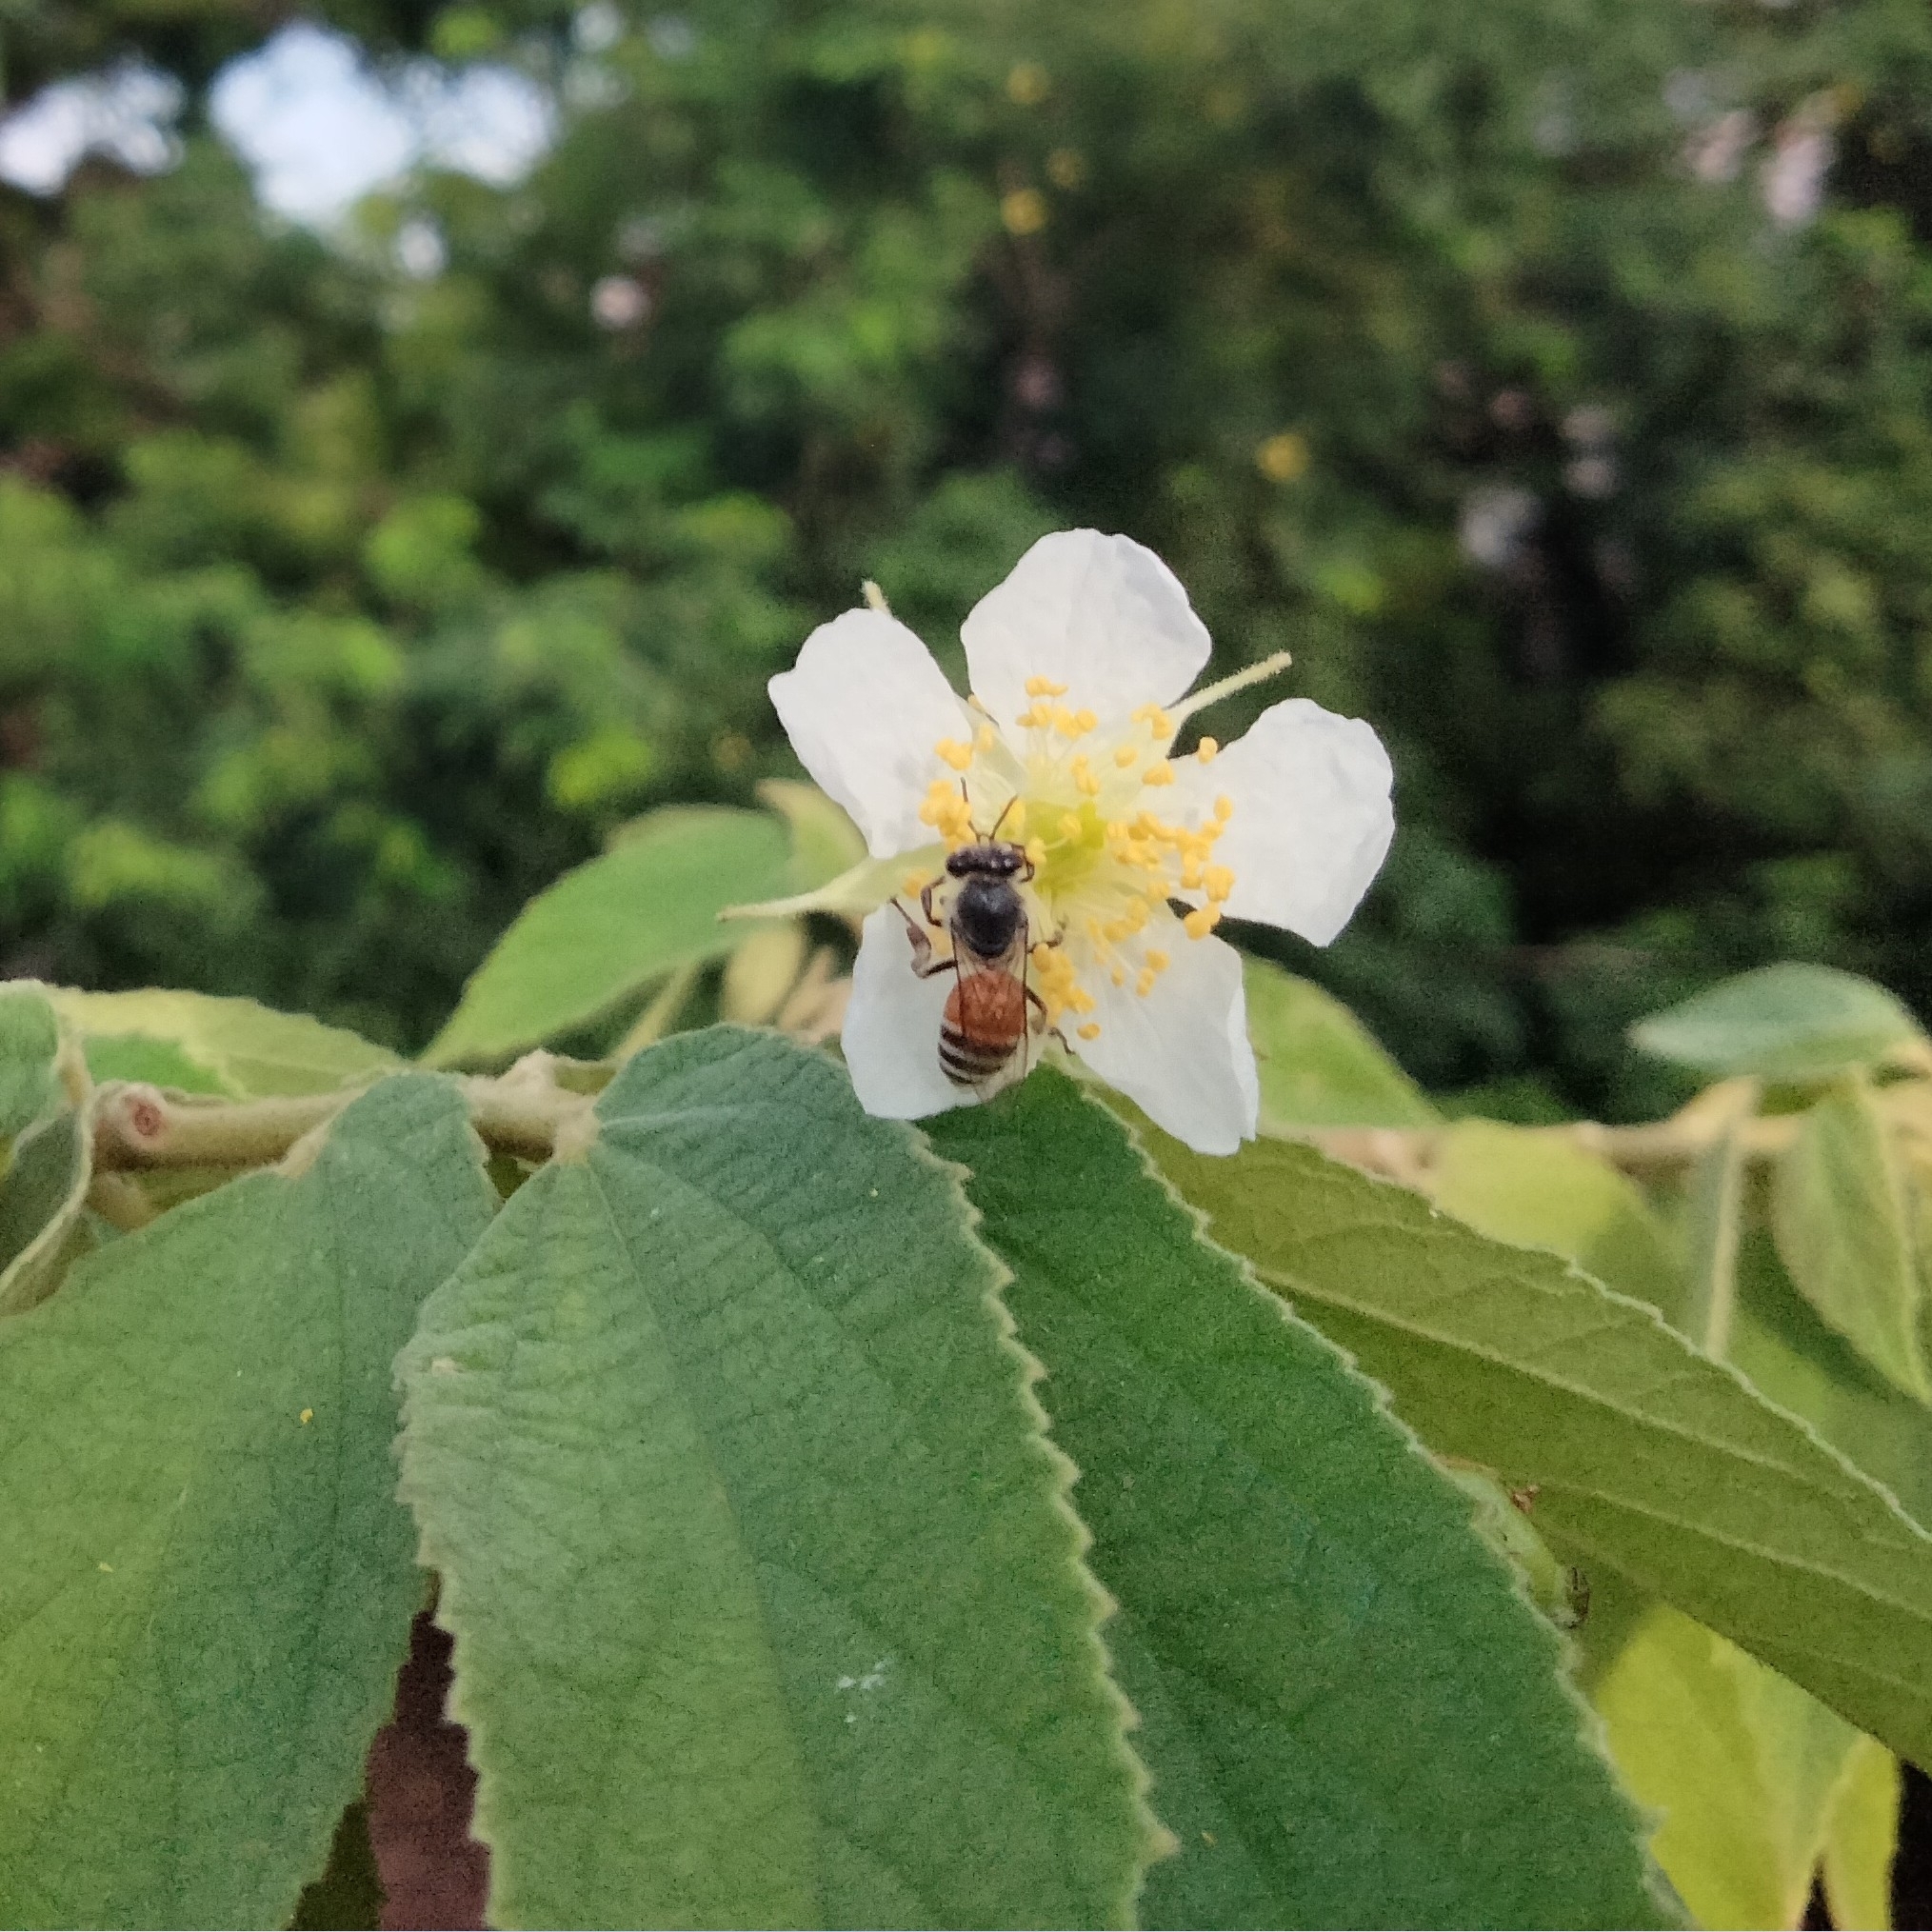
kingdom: Animalia
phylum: Arthropoda
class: Insecta
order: Hymenoptera
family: Apidae
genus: Apis
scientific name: Apis florea
